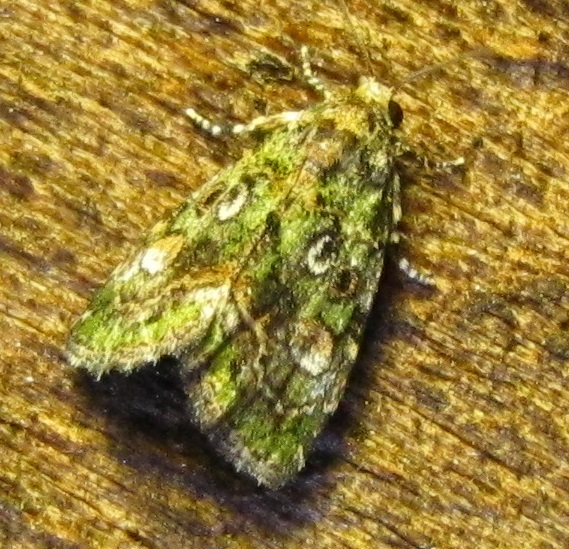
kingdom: Animalia
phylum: Arthropoda
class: Insecta
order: Lepidoptera
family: Noctuidae
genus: Lithacodia
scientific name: Lithacodia musta
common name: Small mossy glyph
